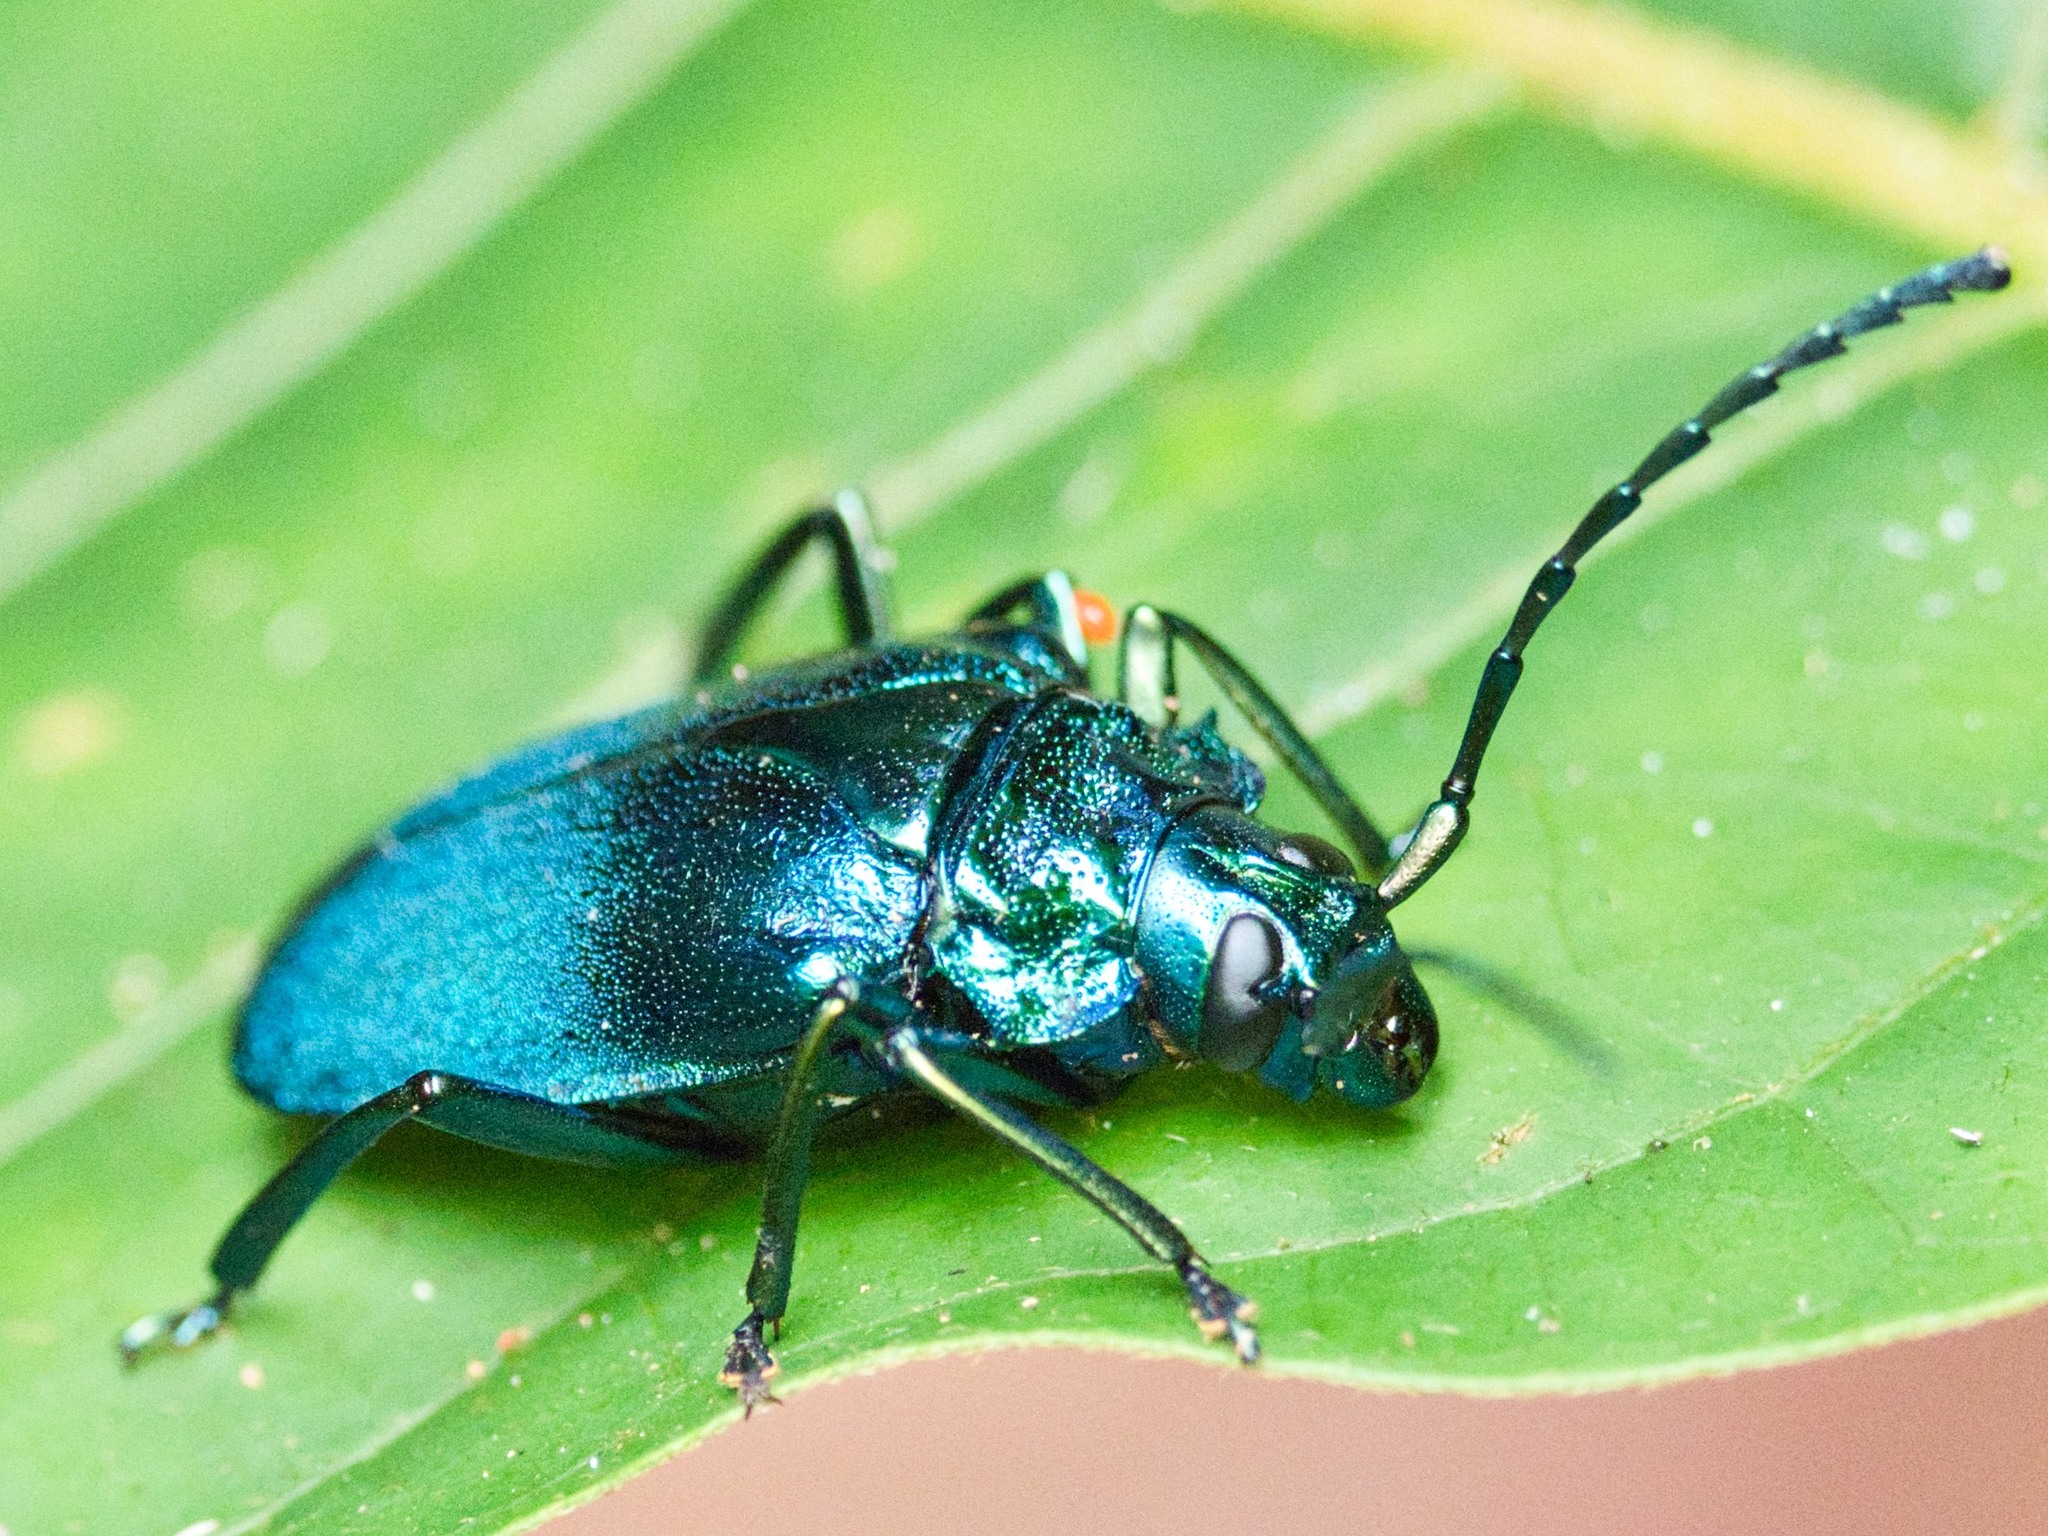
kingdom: Animalia
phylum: Arthropoda
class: Insecta
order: Coleoptera
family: Cerambycidae
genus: Esmeralda
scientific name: Esmeralda laetifica
